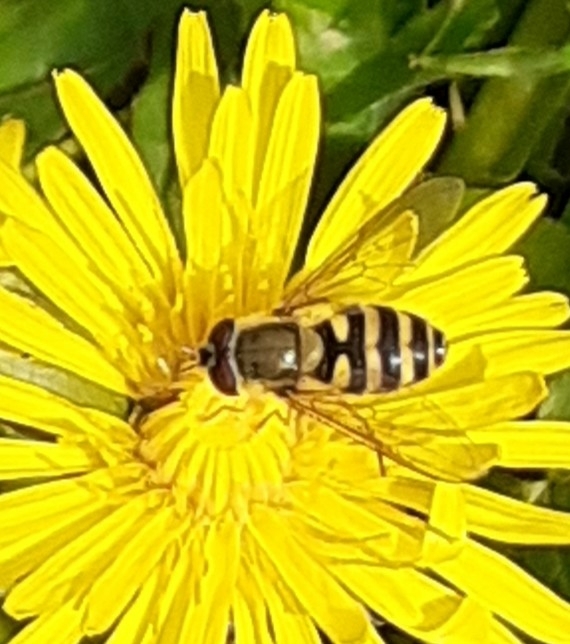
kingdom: Animalia
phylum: Arthropoda
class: Insecta
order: Diptera
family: Syrphidae
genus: Syrphus
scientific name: Syrphus
